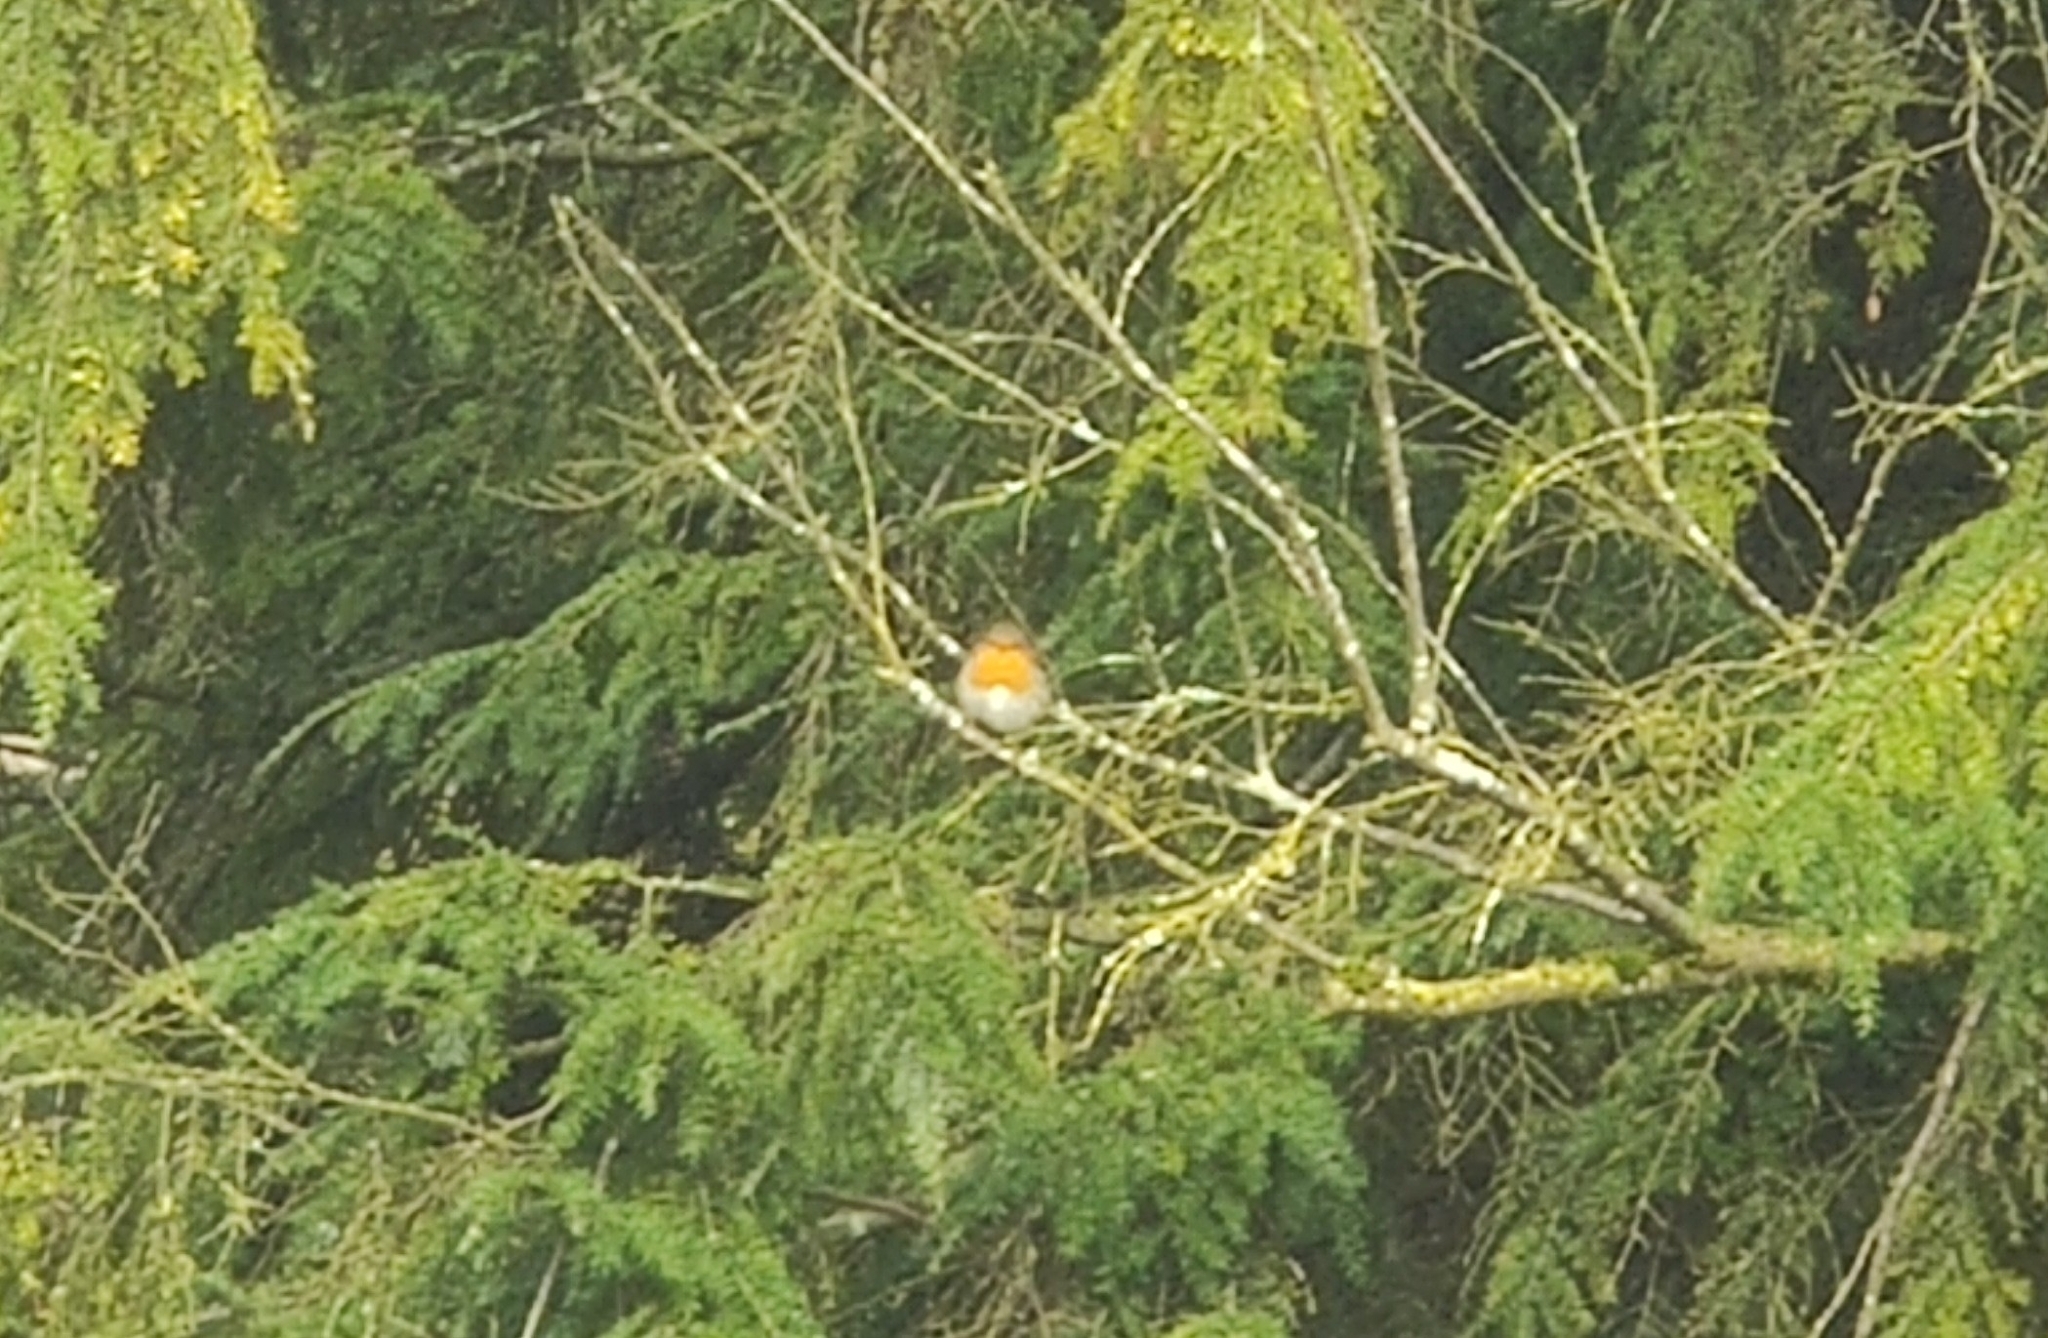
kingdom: Animalia
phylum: Chordata
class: Aves
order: Passeriformes
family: Muscicapidae
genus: Erithacus
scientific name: Erithacus rubecula
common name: European robin
